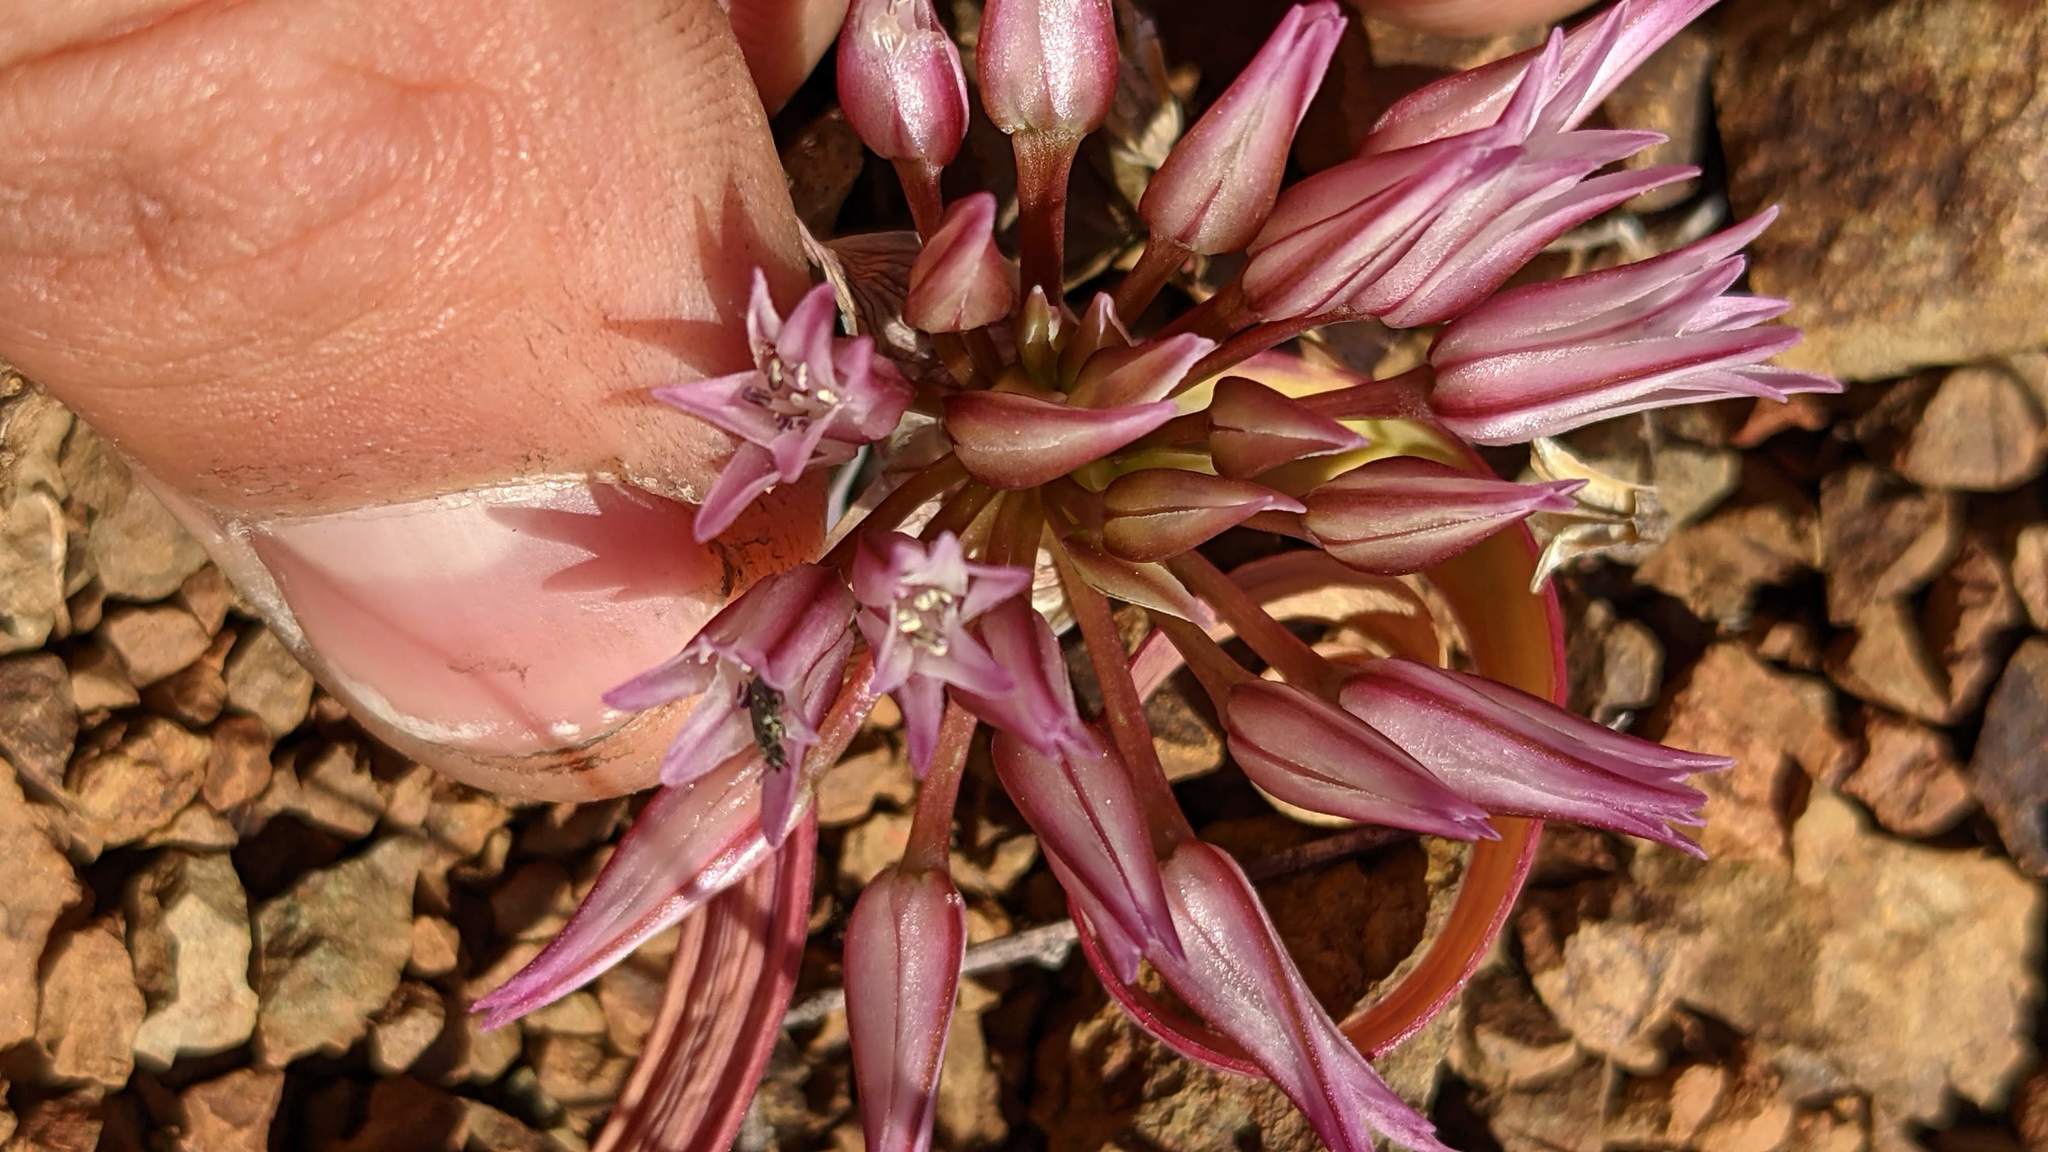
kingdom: Plantae
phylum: Tracheophyta
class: Liliopsida
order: Asparagales
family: Amaryllidaceae
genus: Allium
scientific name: Allium falcifolium
